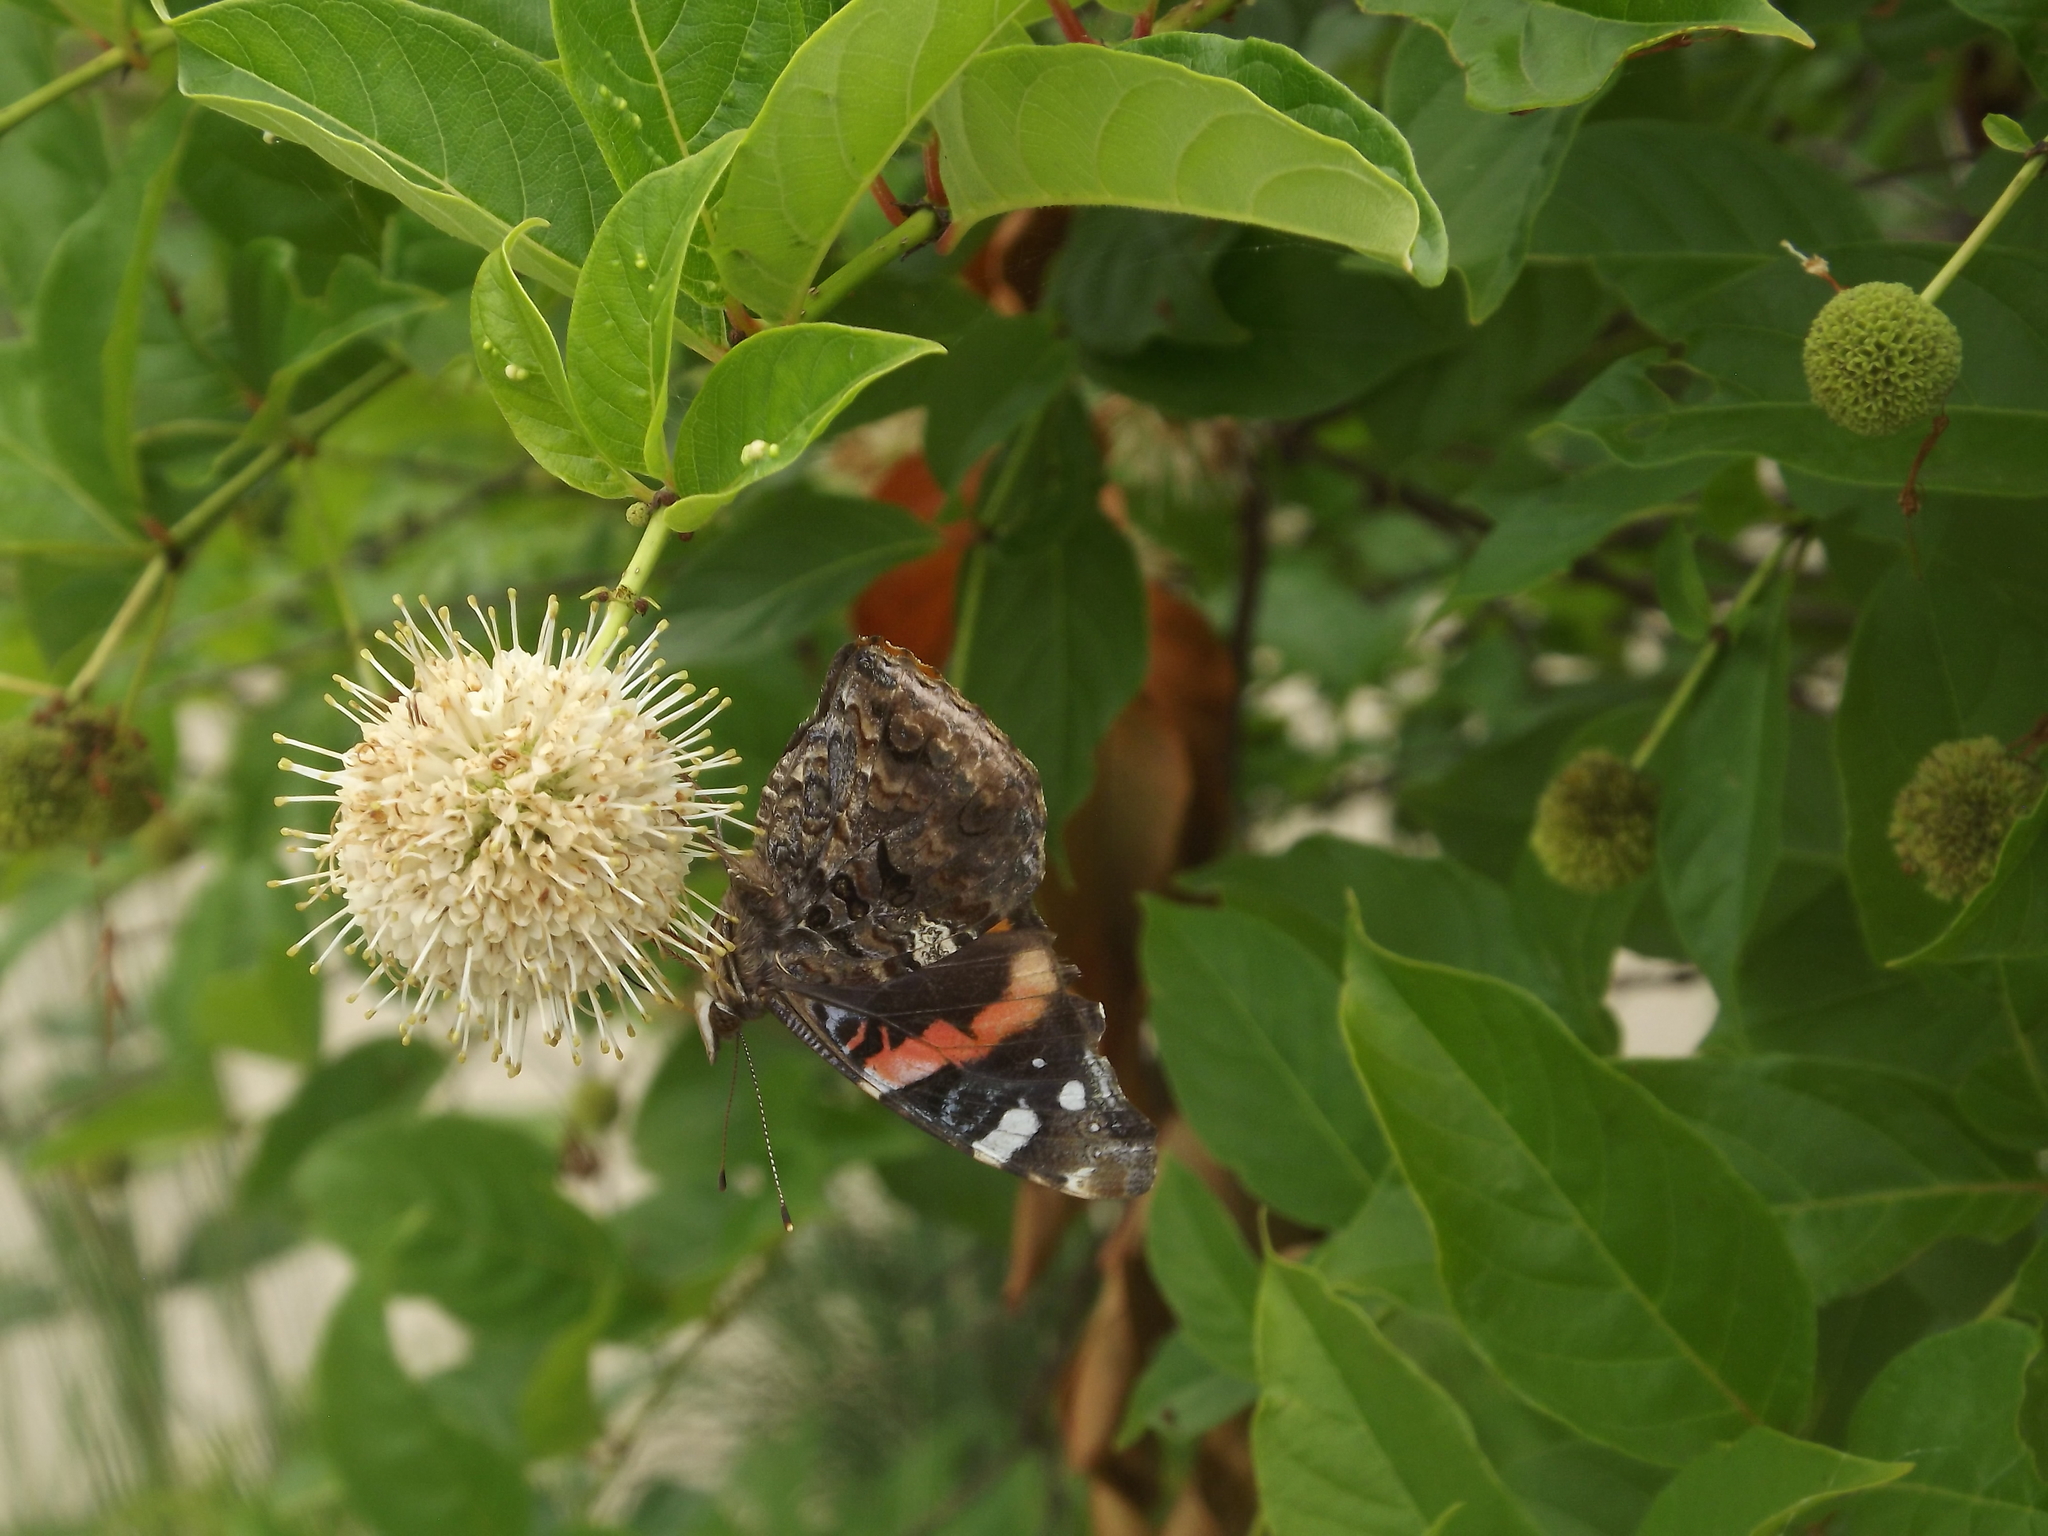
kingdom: Animalia
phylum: Arthropoda
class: Insecta
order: Lepidoptera
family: Nymphalidae
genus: Vanessa
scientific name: Vanessa atalanta
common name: Red admiral
